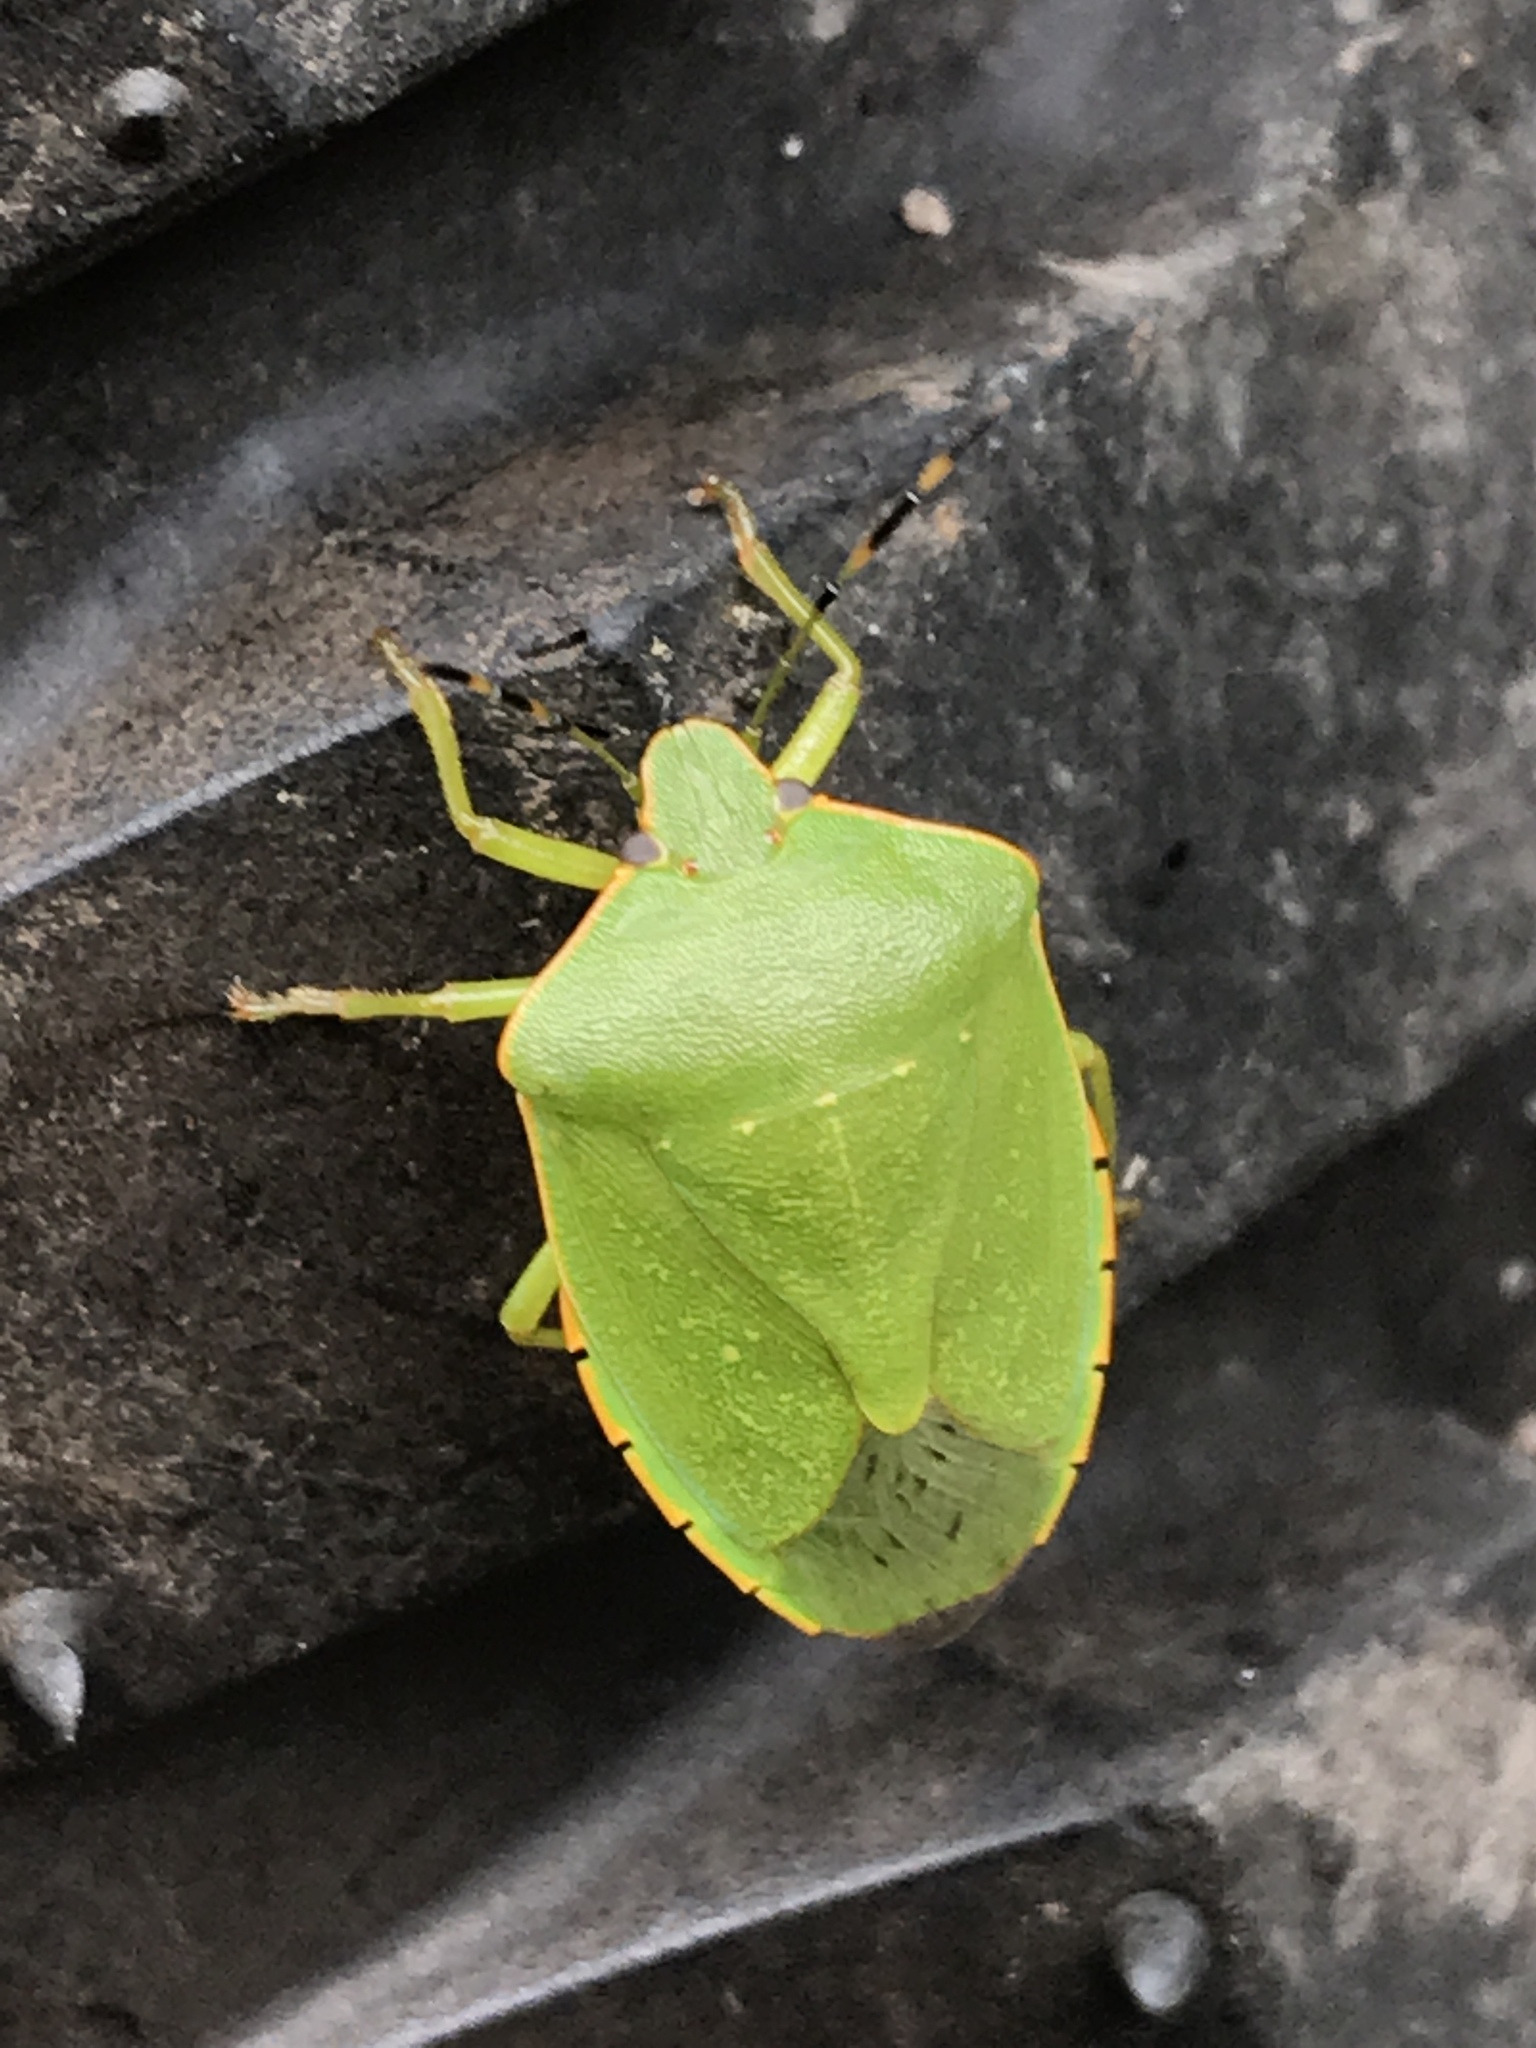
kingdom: Animalia
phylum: Arthropoda
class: Insecta
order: Hemiptera
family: Pentatomidae
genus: Chinavia
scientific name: Chinavia hilaris
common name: Green stink bug
